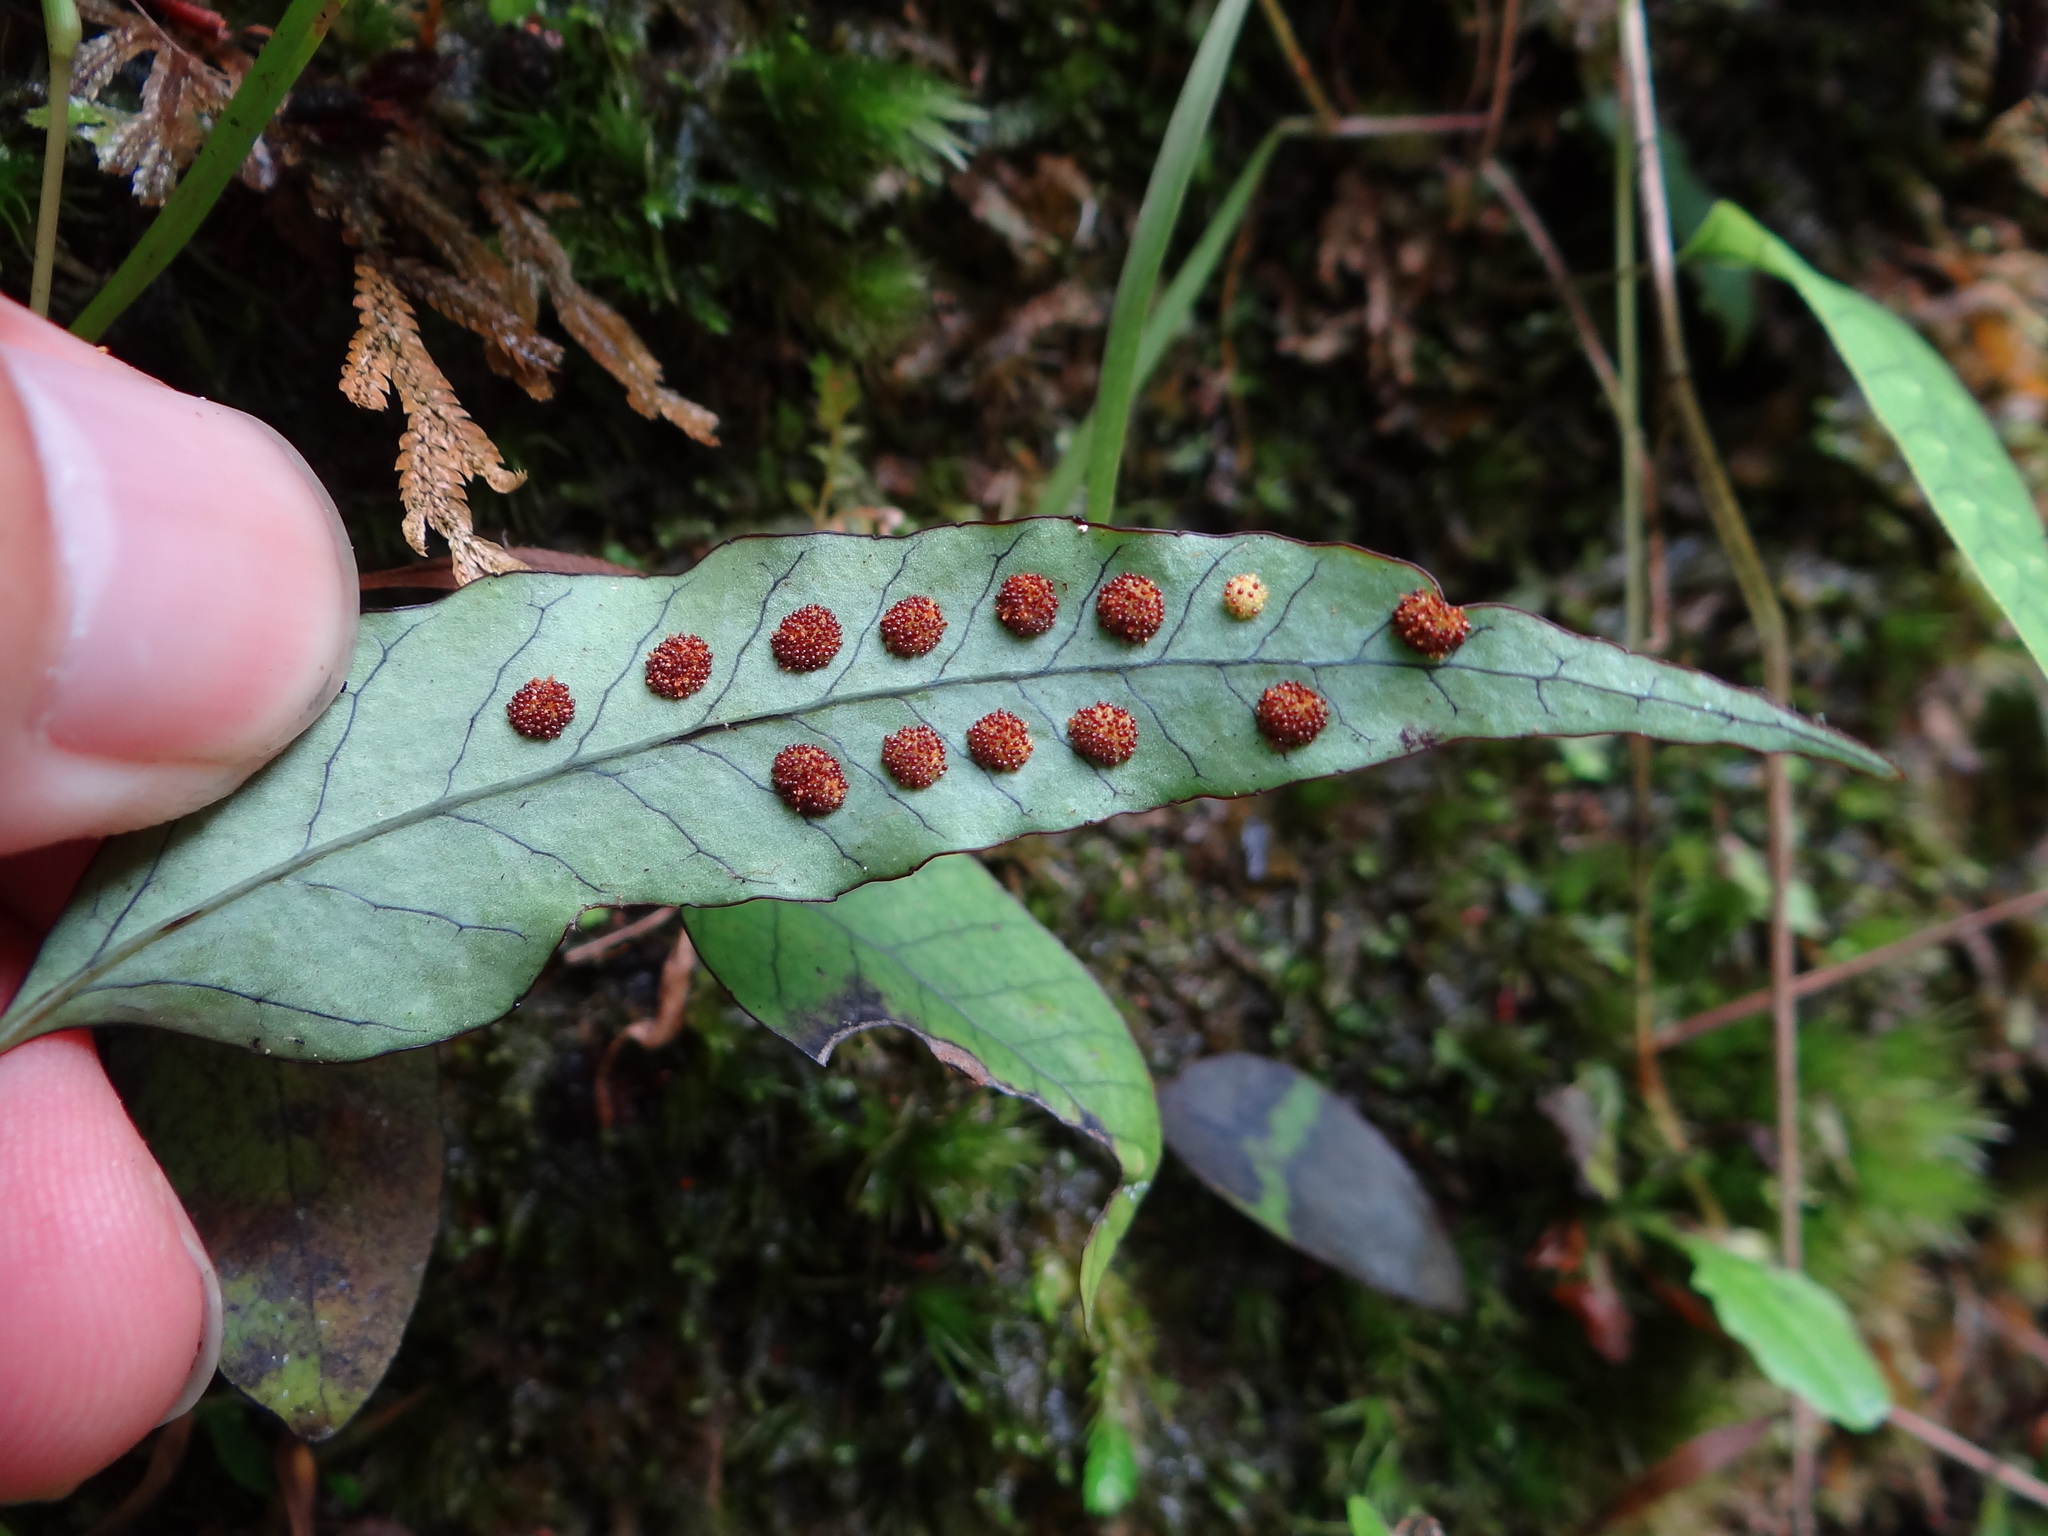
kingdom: Plantae
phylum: Tracheophyta
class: Polypodiopsida
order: Polypodiales
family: Polypodiaceae
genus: Selliguea
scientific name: Selliguea hastata
